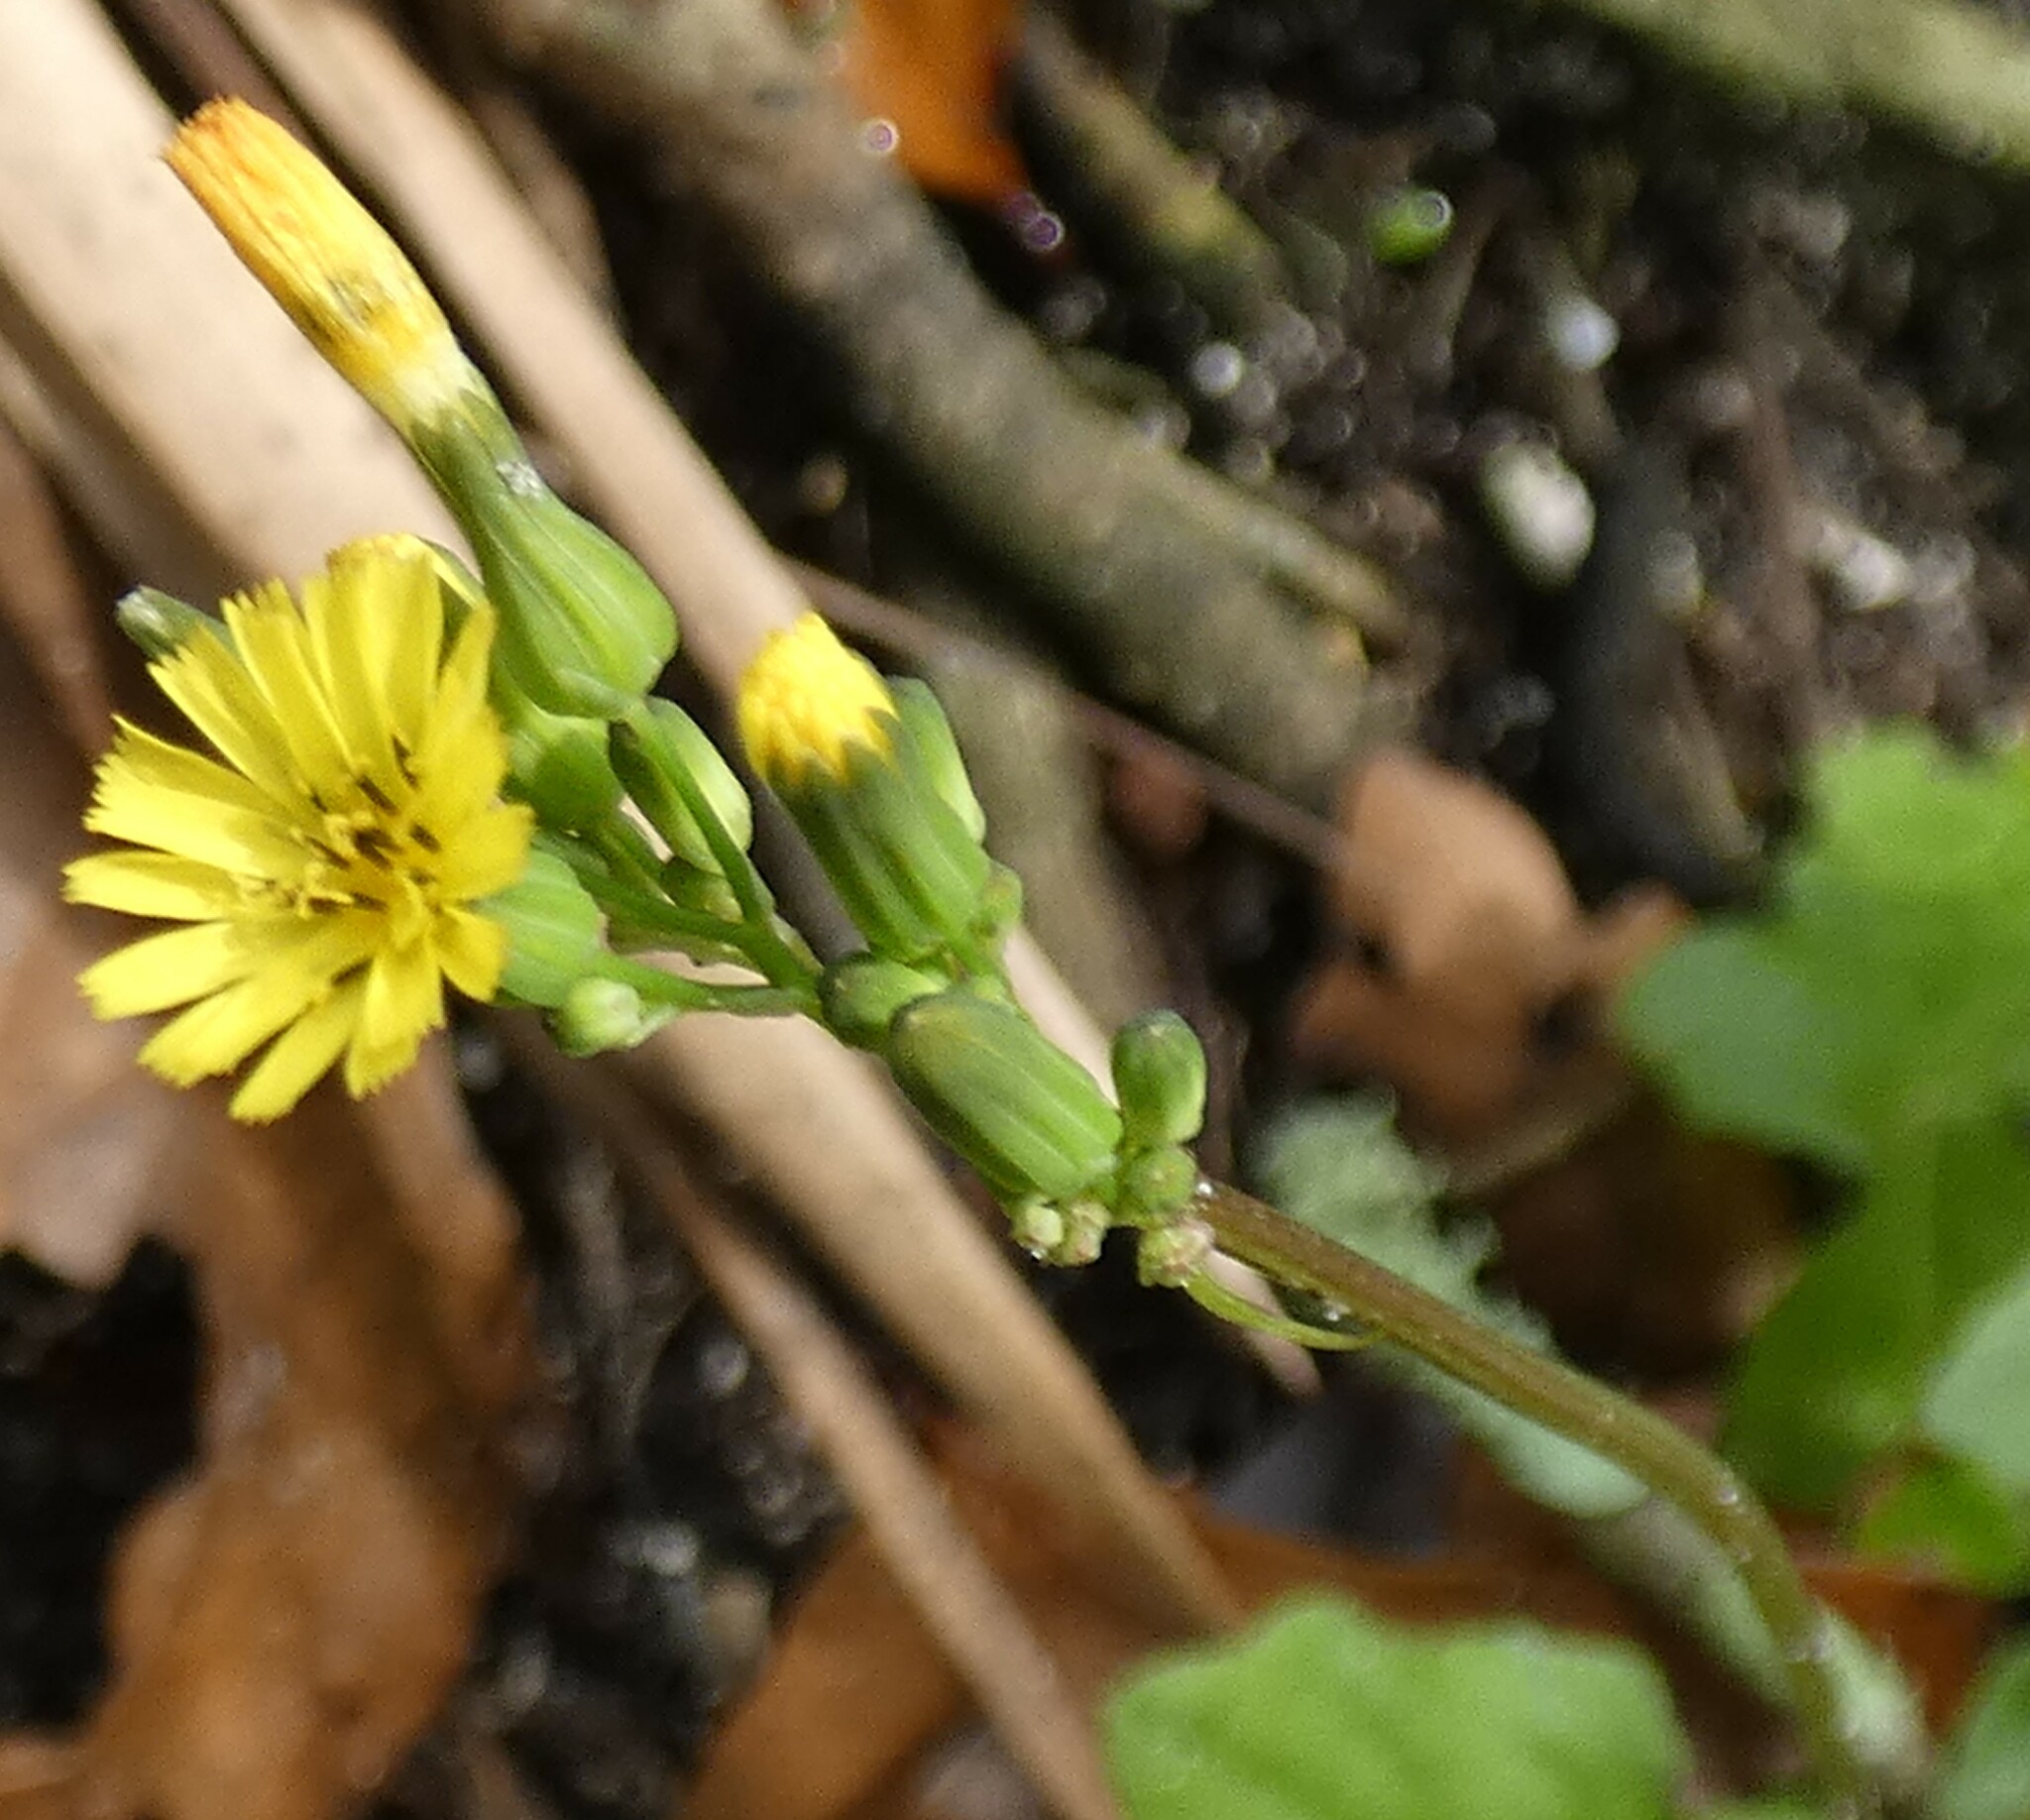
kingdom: Plantae
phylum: Tracheophyta
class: Magnoliopsida
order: Asterales
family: Asteraceae
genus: Youngia
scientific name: Youngia japonica
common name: Oriental false hawksbeard
